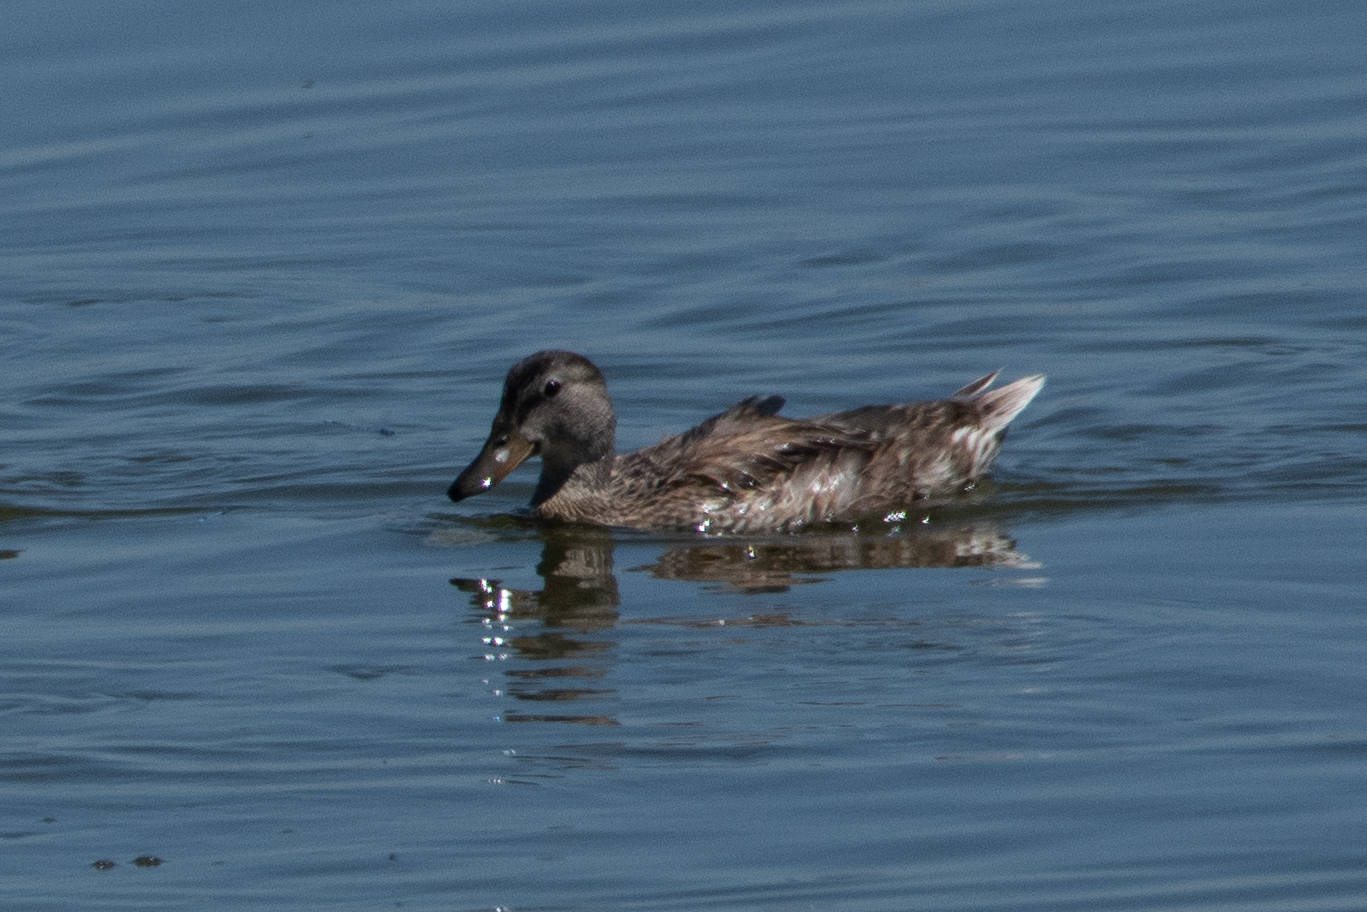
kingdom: Animalia
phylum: Chordata
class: Aves
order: Anseriformes
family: Anatidae
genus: Anas
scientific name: Anas platyrhynchos
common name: Mallard
